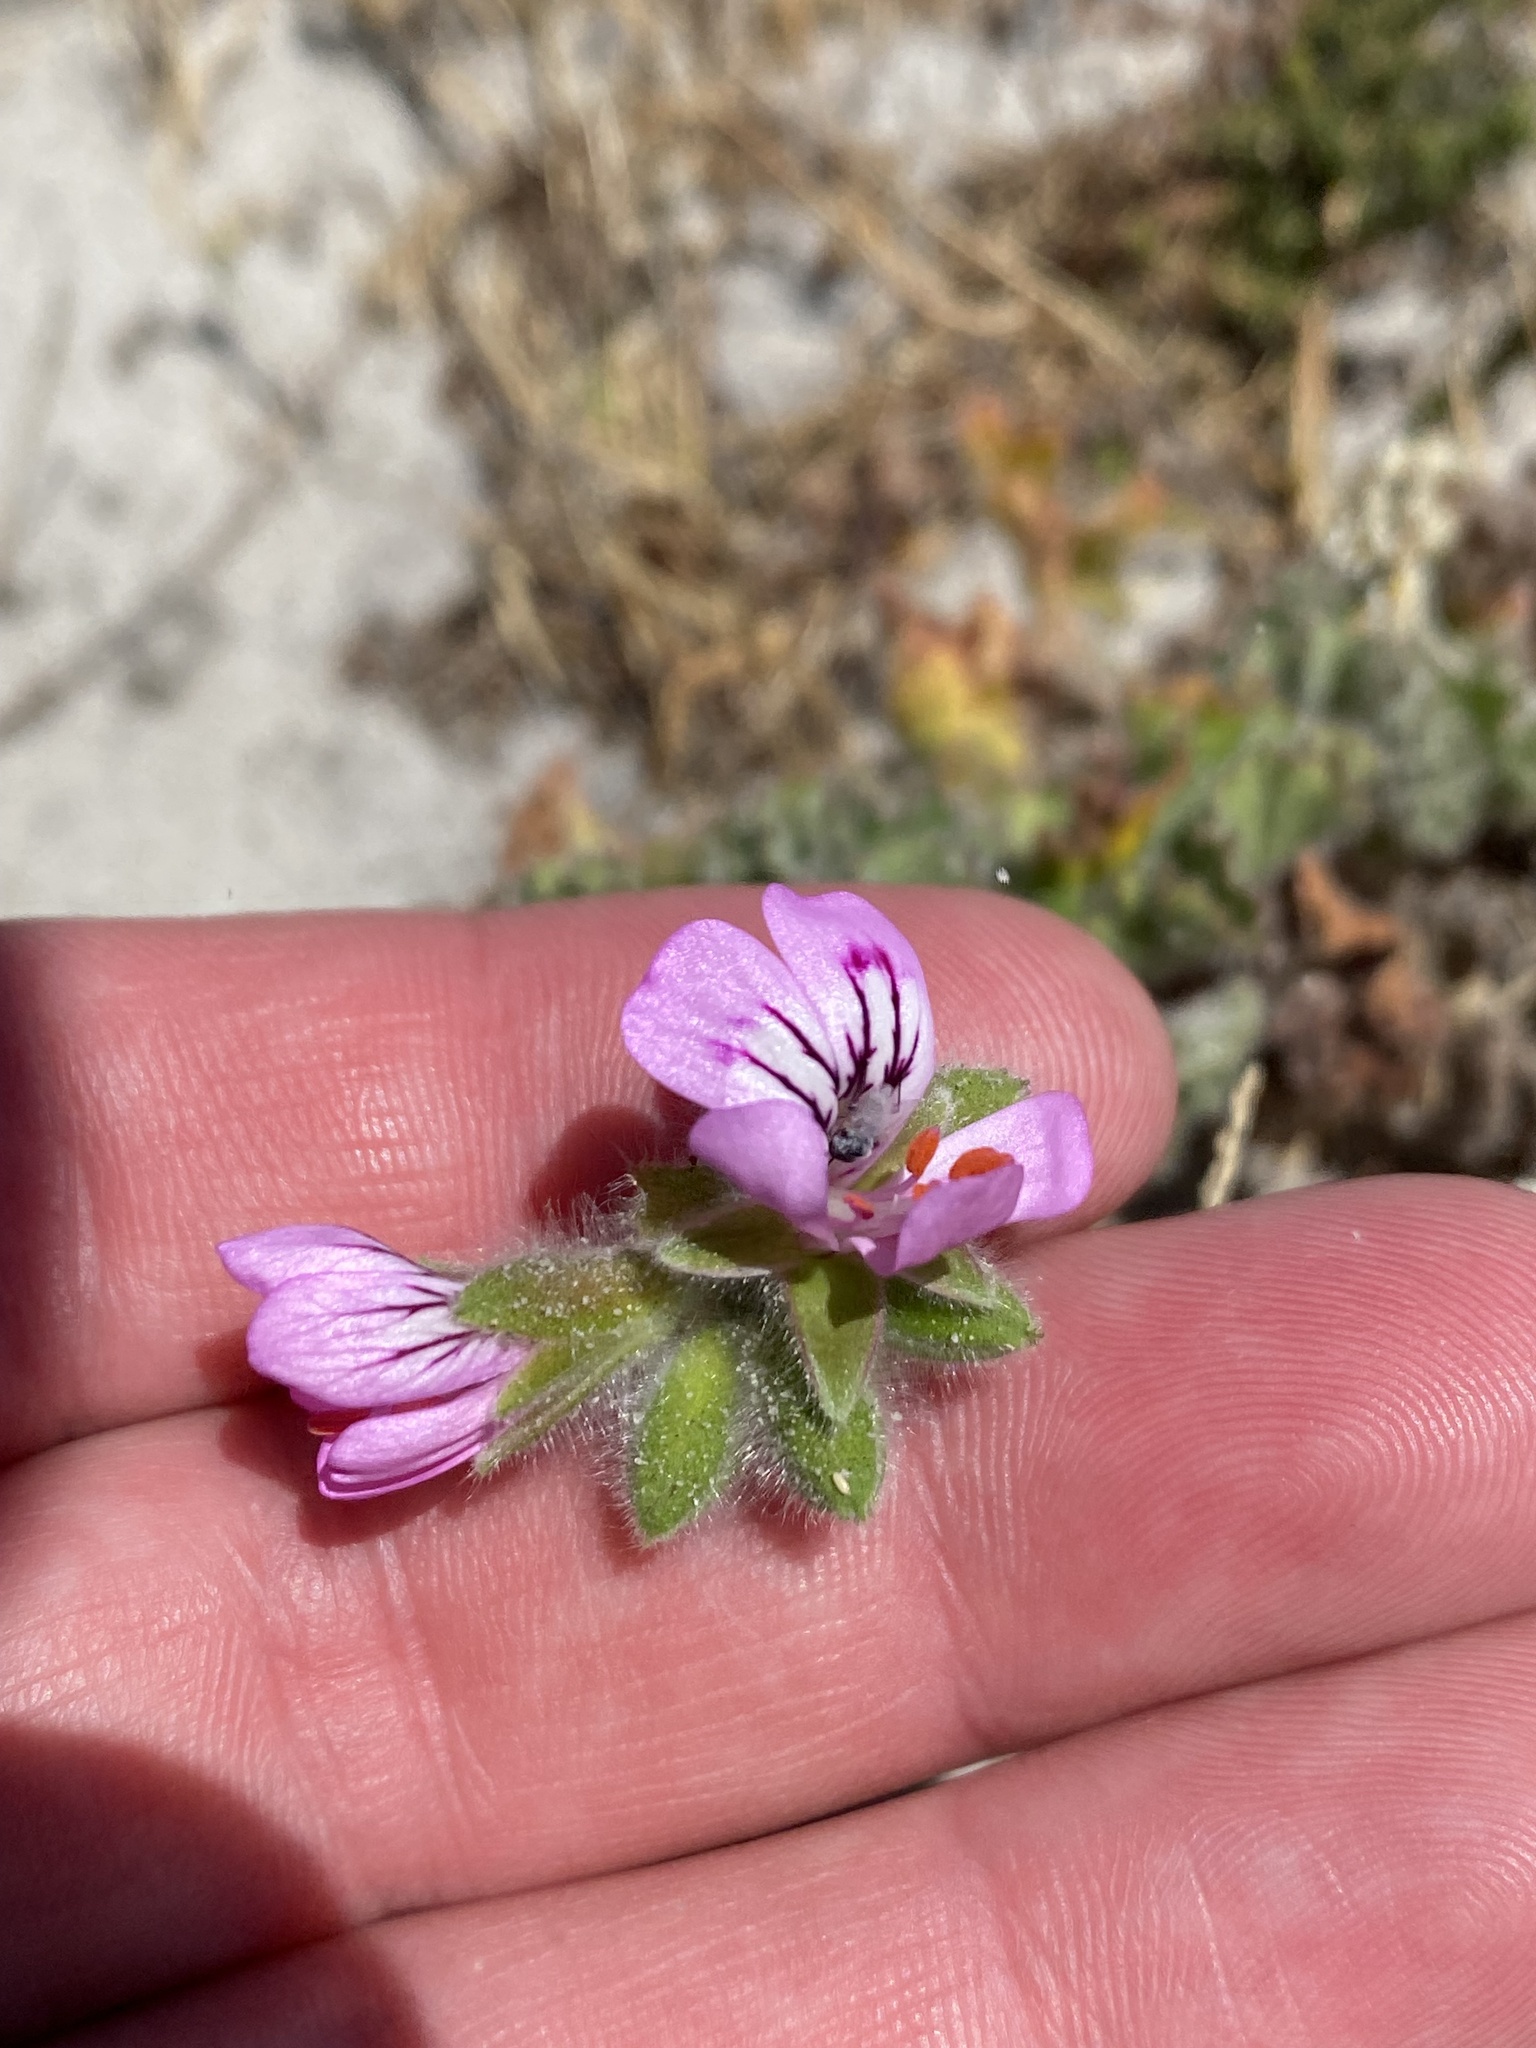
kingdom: Plantae
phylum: Tracheophyta
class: Magnoliopsida
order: Geraniales
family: Geraniaceae
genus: Pelargonium
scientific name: Pelargonium capitatum
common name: Rose scented geranium
